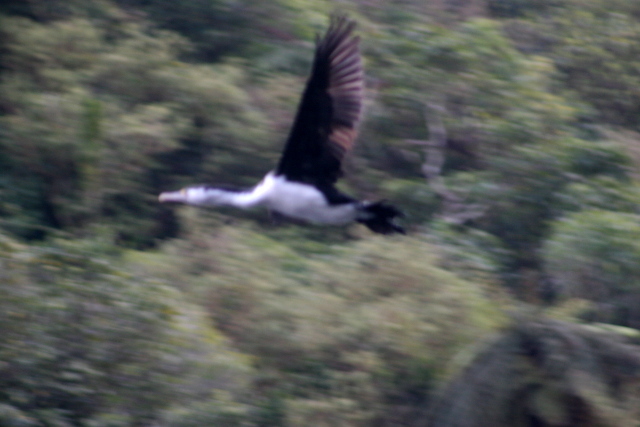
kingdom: Animalia
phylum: Chordata
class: Aves
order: Suliformes
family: Phalacrocoracidae
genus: Phalacrocorax
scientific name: Phalacrocorax varius
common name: Pied cormorant
